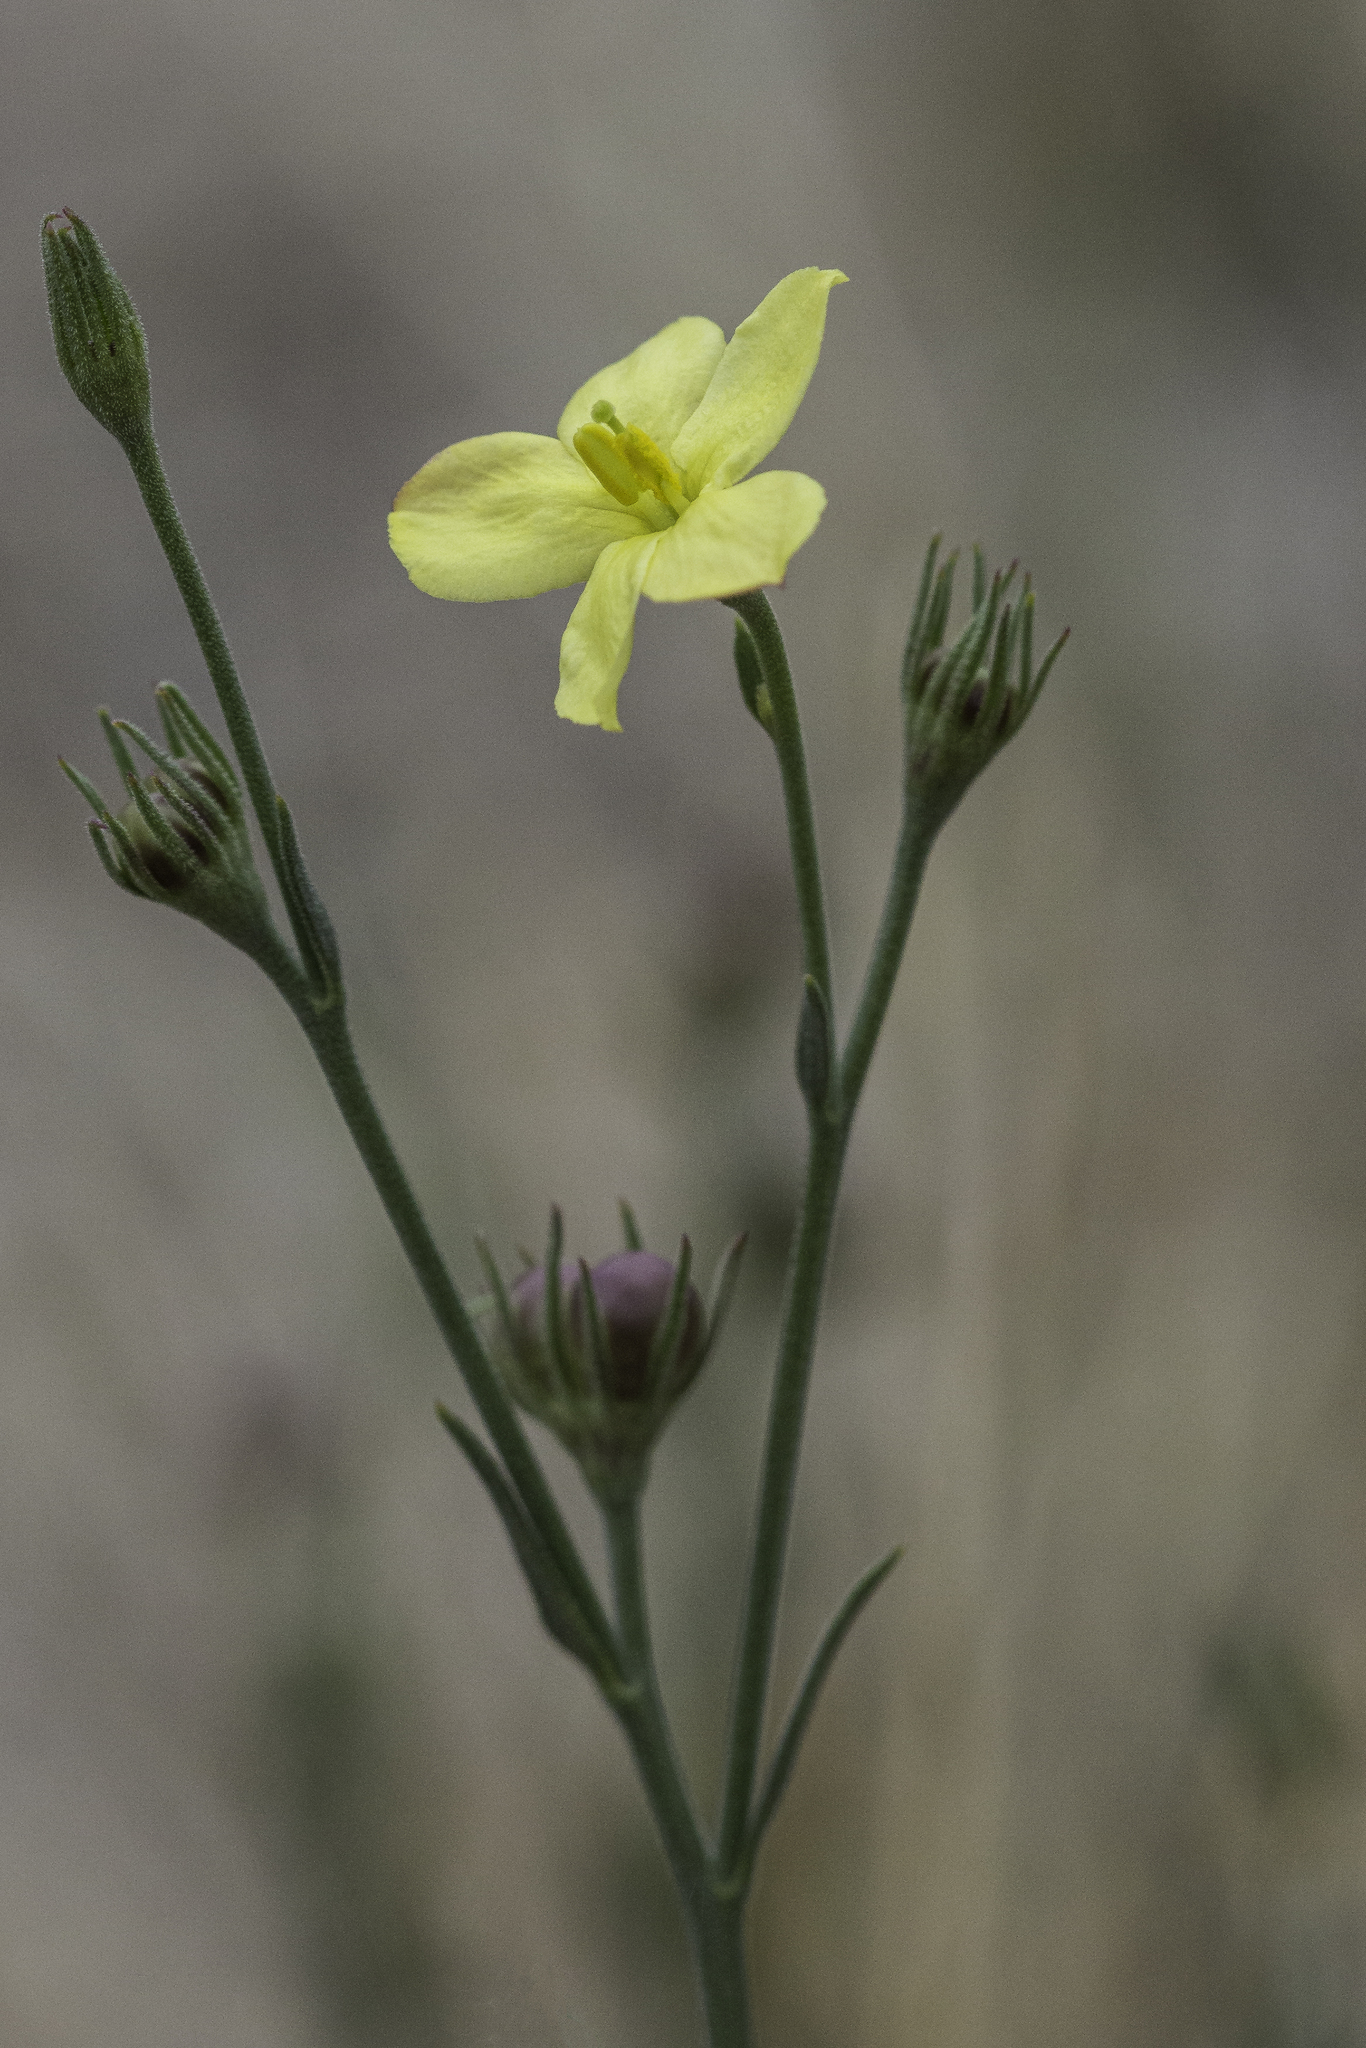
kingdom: Plantae
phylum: Tracheophyta
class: Magnoliopsida
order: Lamiales
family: Oleaceae
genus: Menodora
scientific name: Menodora scabra
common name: Rough menodora
